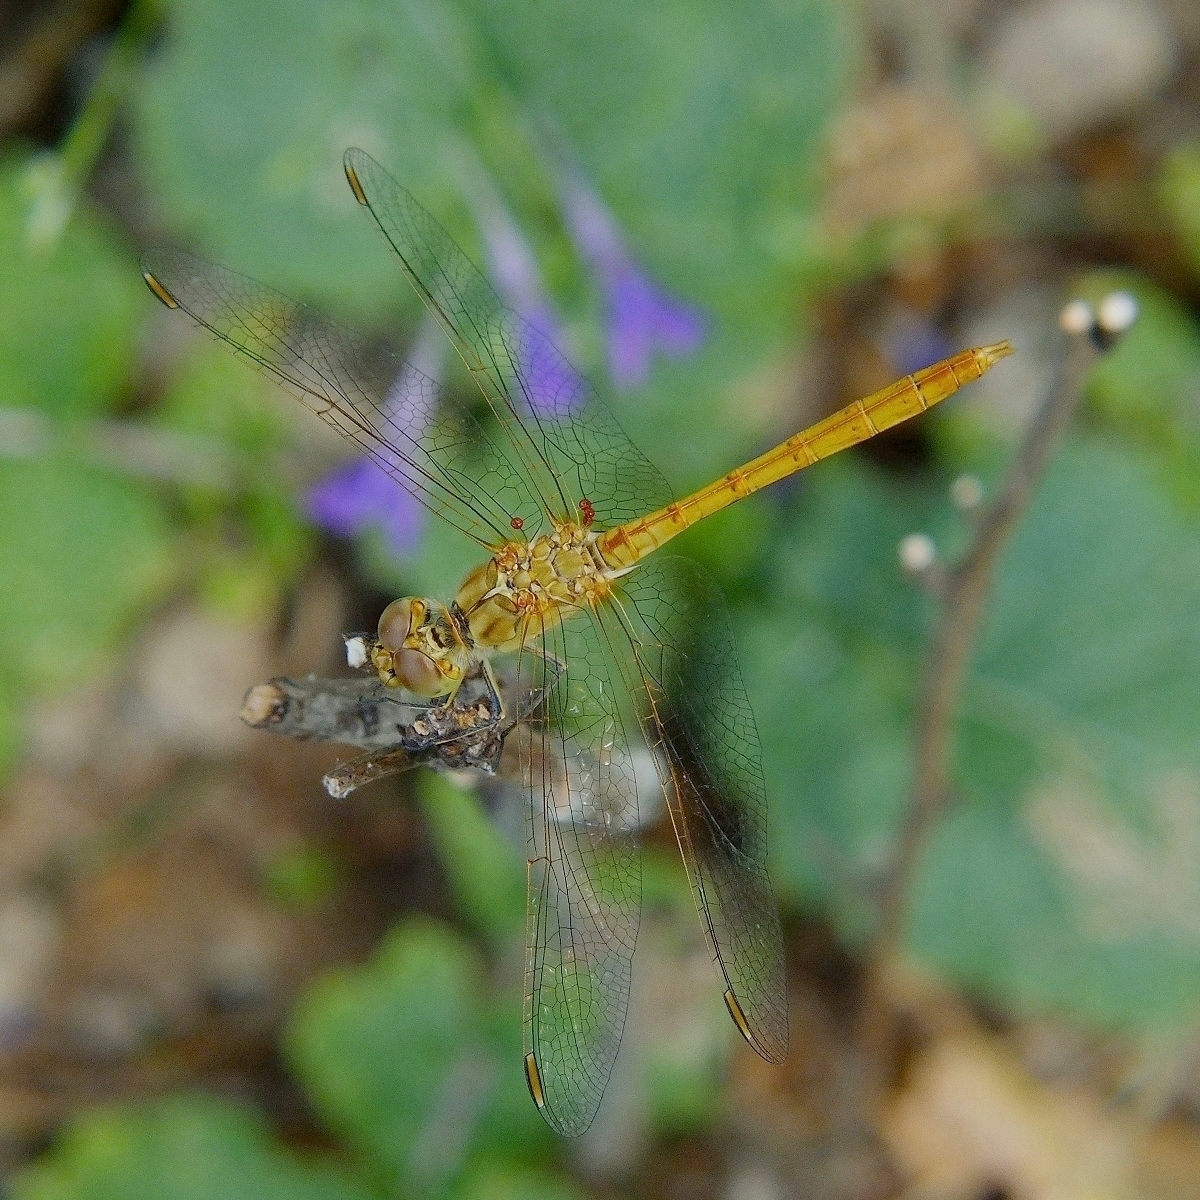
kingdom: Animalia
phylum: Arthropoda
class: Insecta
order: Odonata
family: Libellulidae
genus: Sympetrum
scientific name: Sympetrum meridionale
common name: Southern darter
